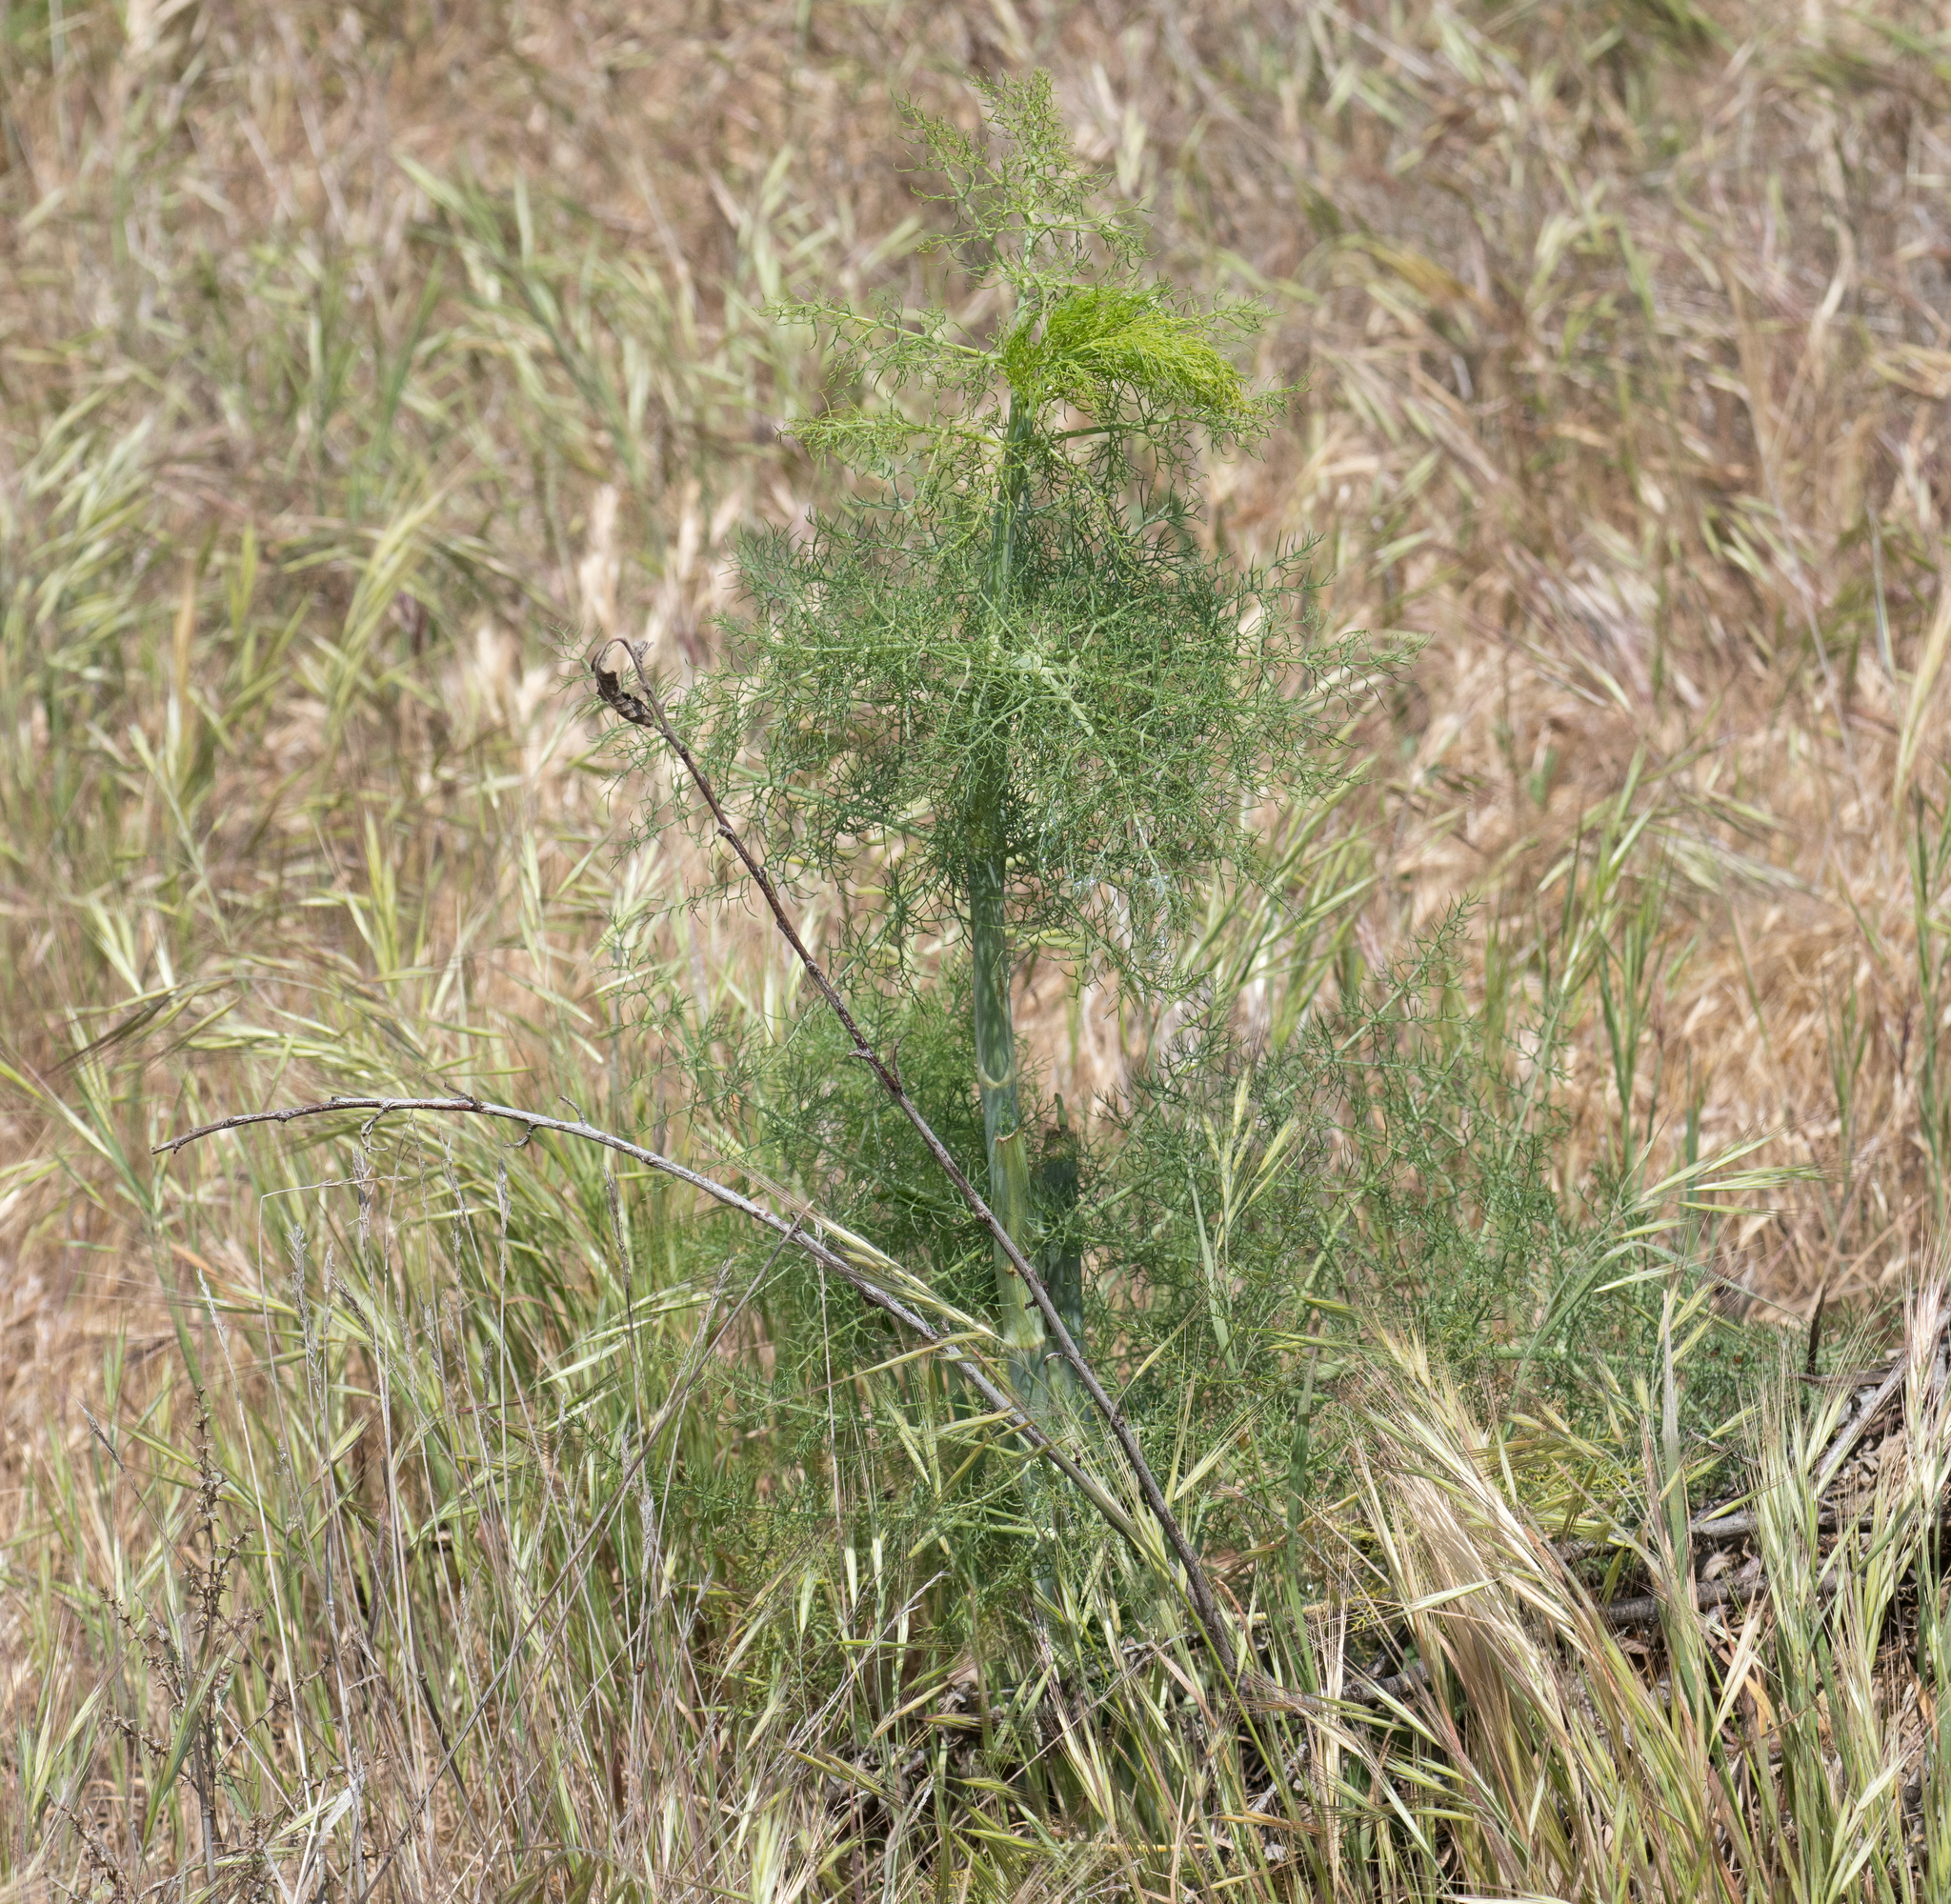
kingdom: Plantae
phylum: Tracheophyta
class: Magnoliopsida
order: Apiales
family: Apiaceae
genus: Foeniculum
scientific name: Foeniculum vulgare
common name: Fennel
